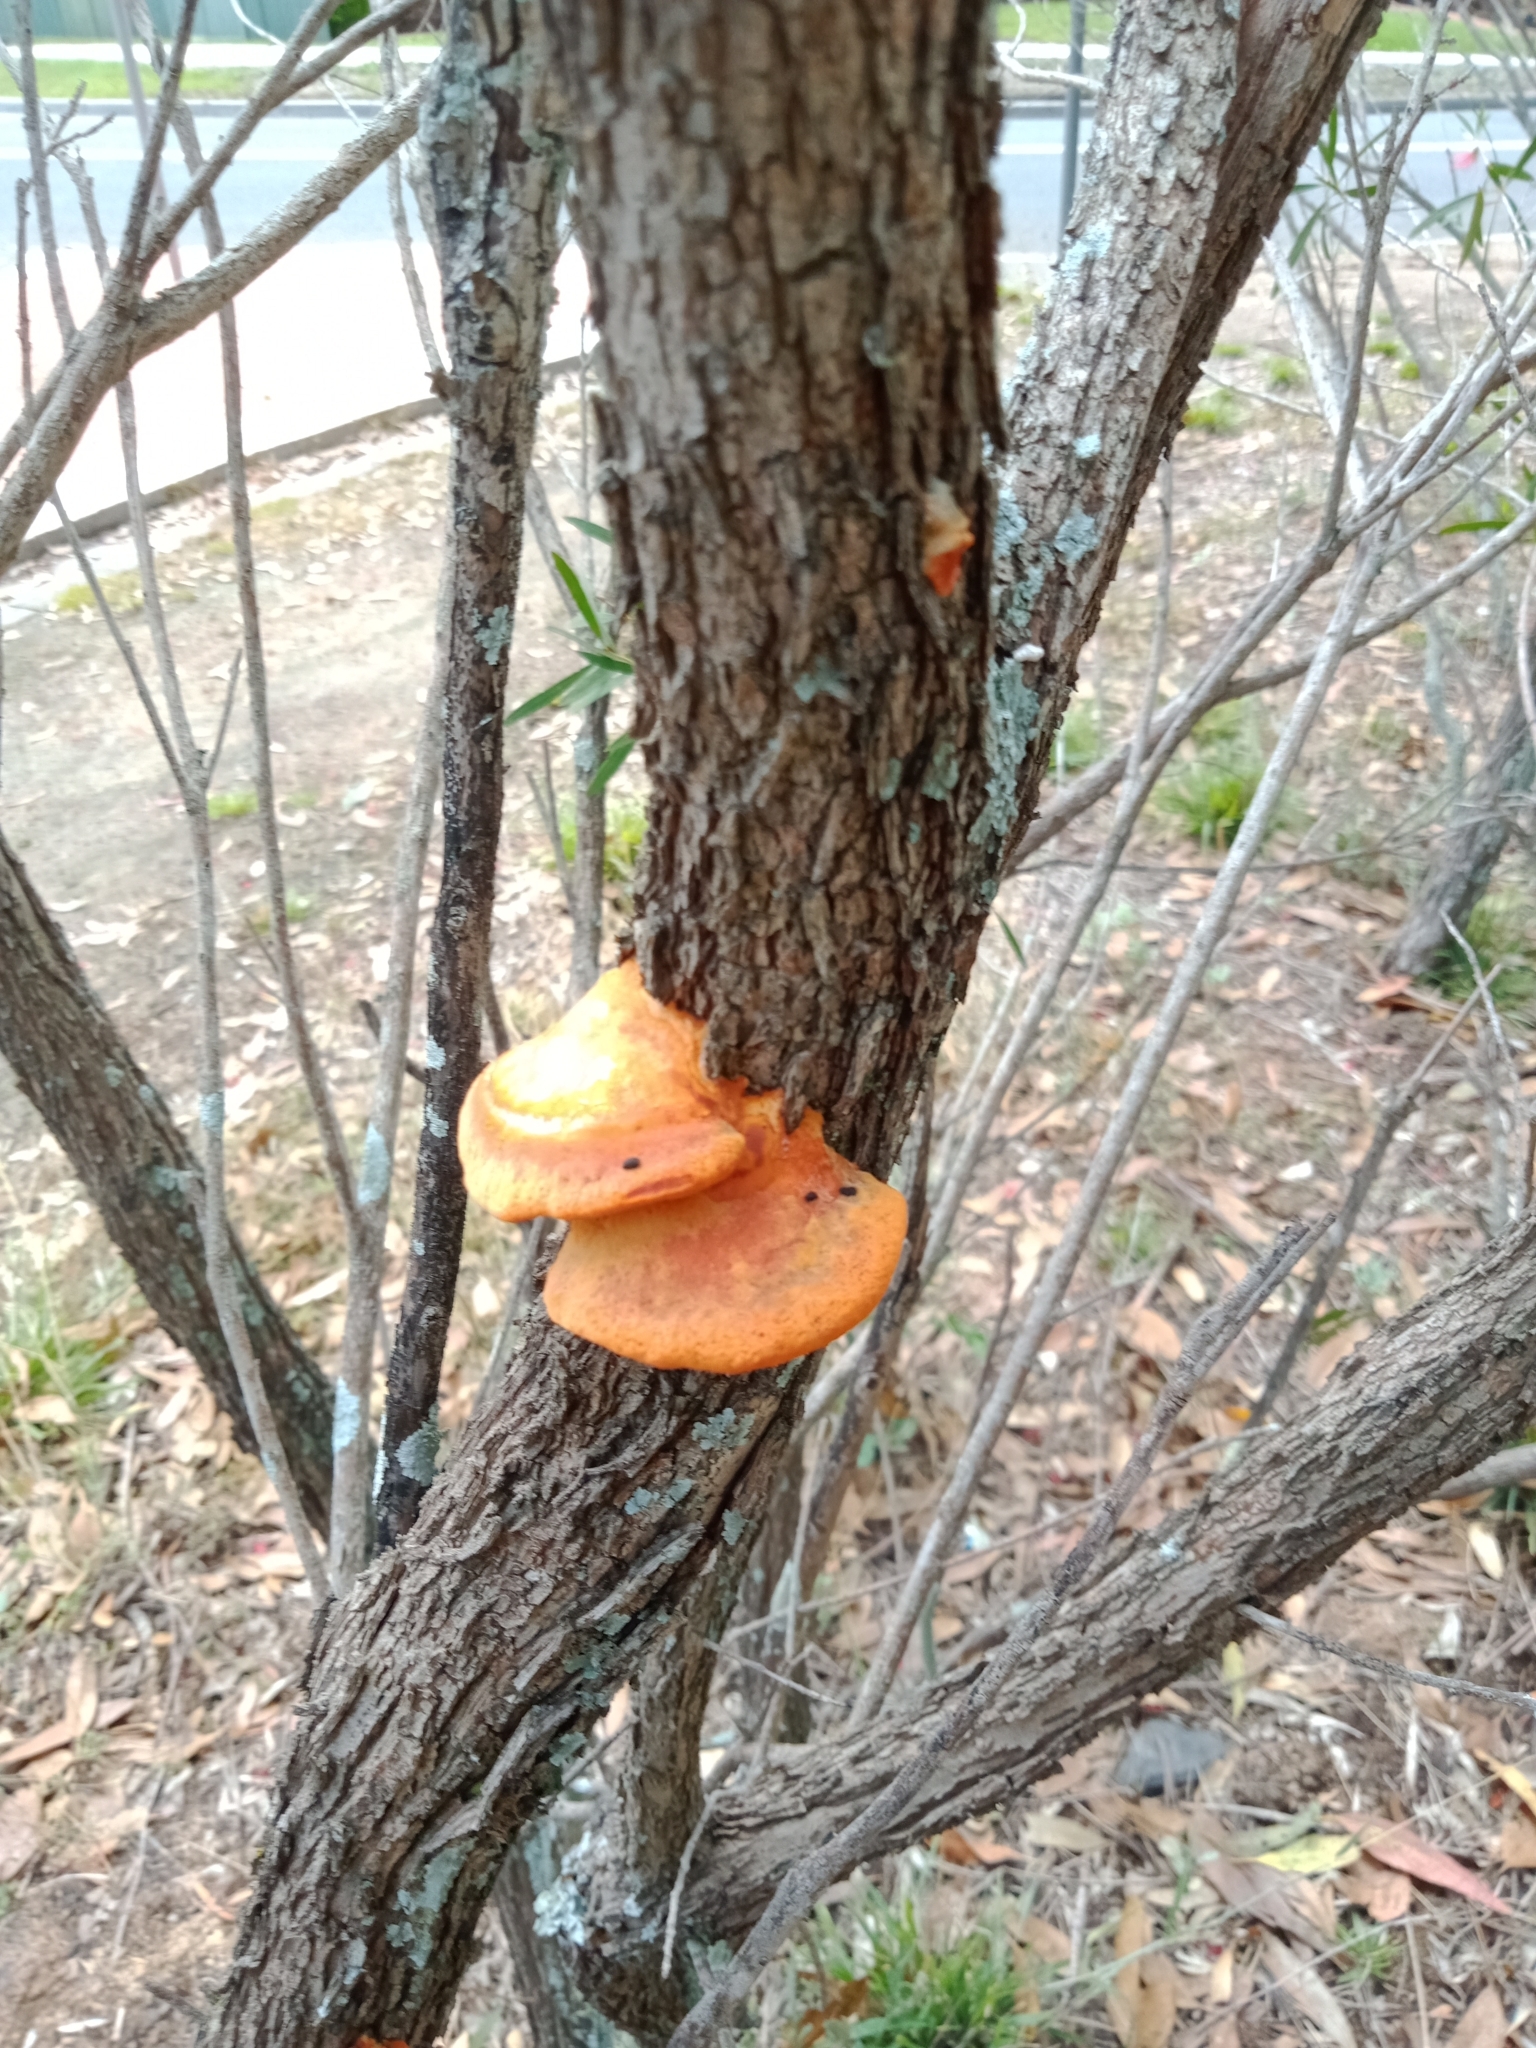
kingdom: Fungi
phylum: Basidiomycota
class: Agaricomycetes
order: Polyporales
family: Polyporaceae
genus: Trametes
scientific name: Trametes coccinea
